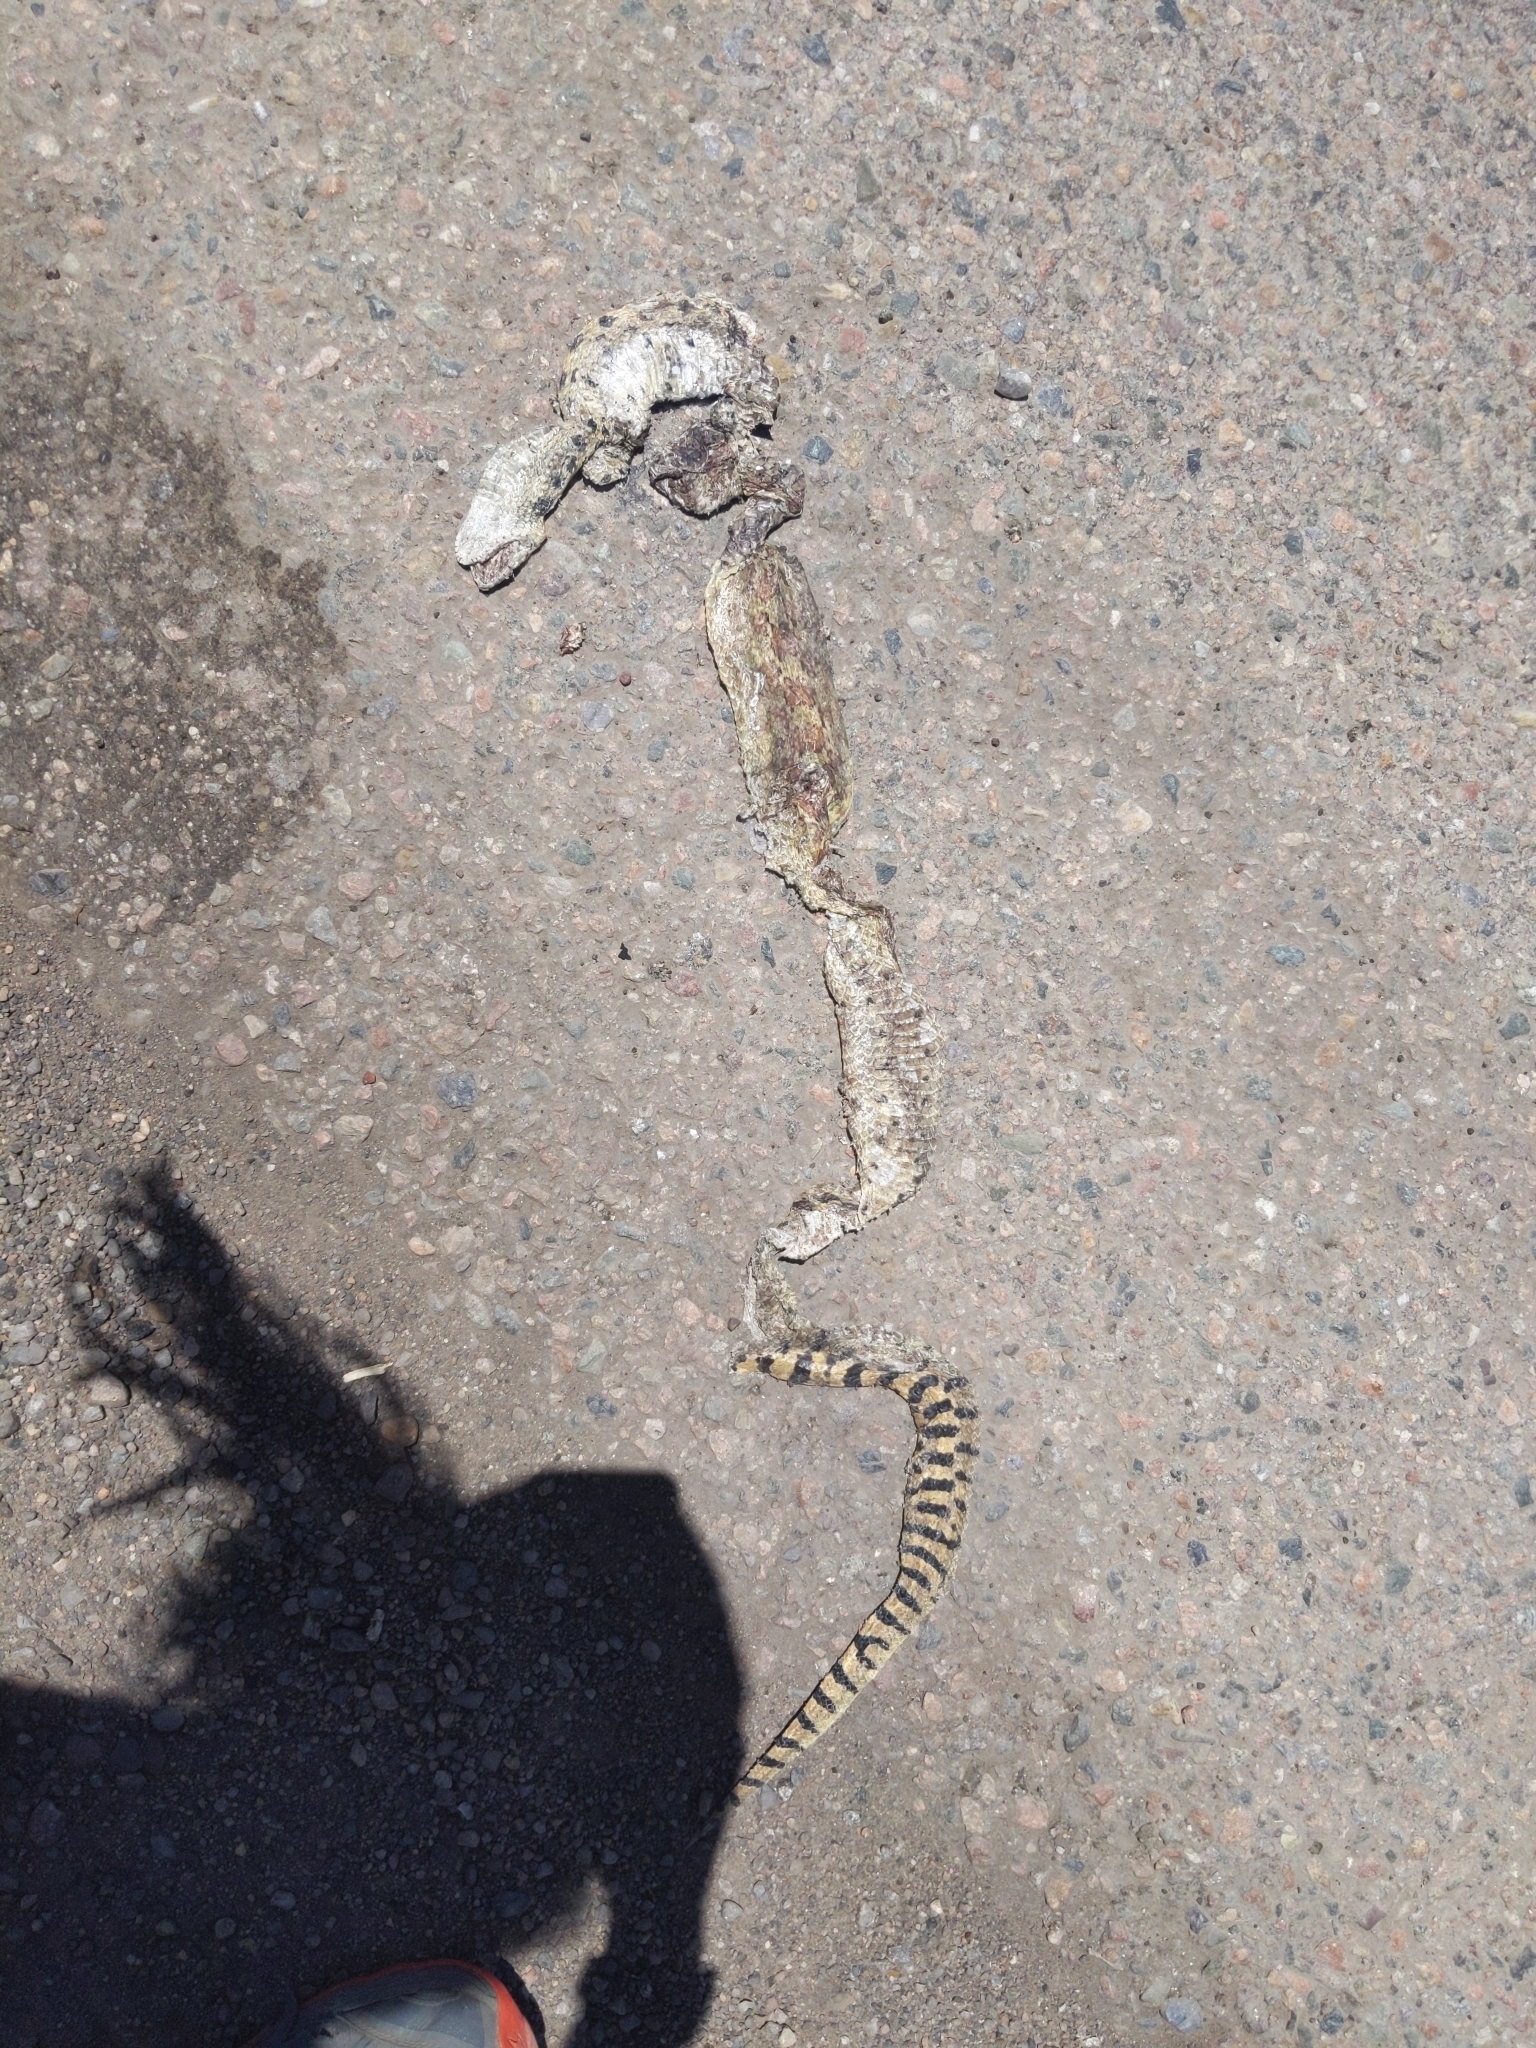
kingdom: Animalia
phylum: Chordata
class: Squamata
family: Colubridae
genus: Pituophis
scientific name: Pituophis catenifer
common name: Gopher snake
